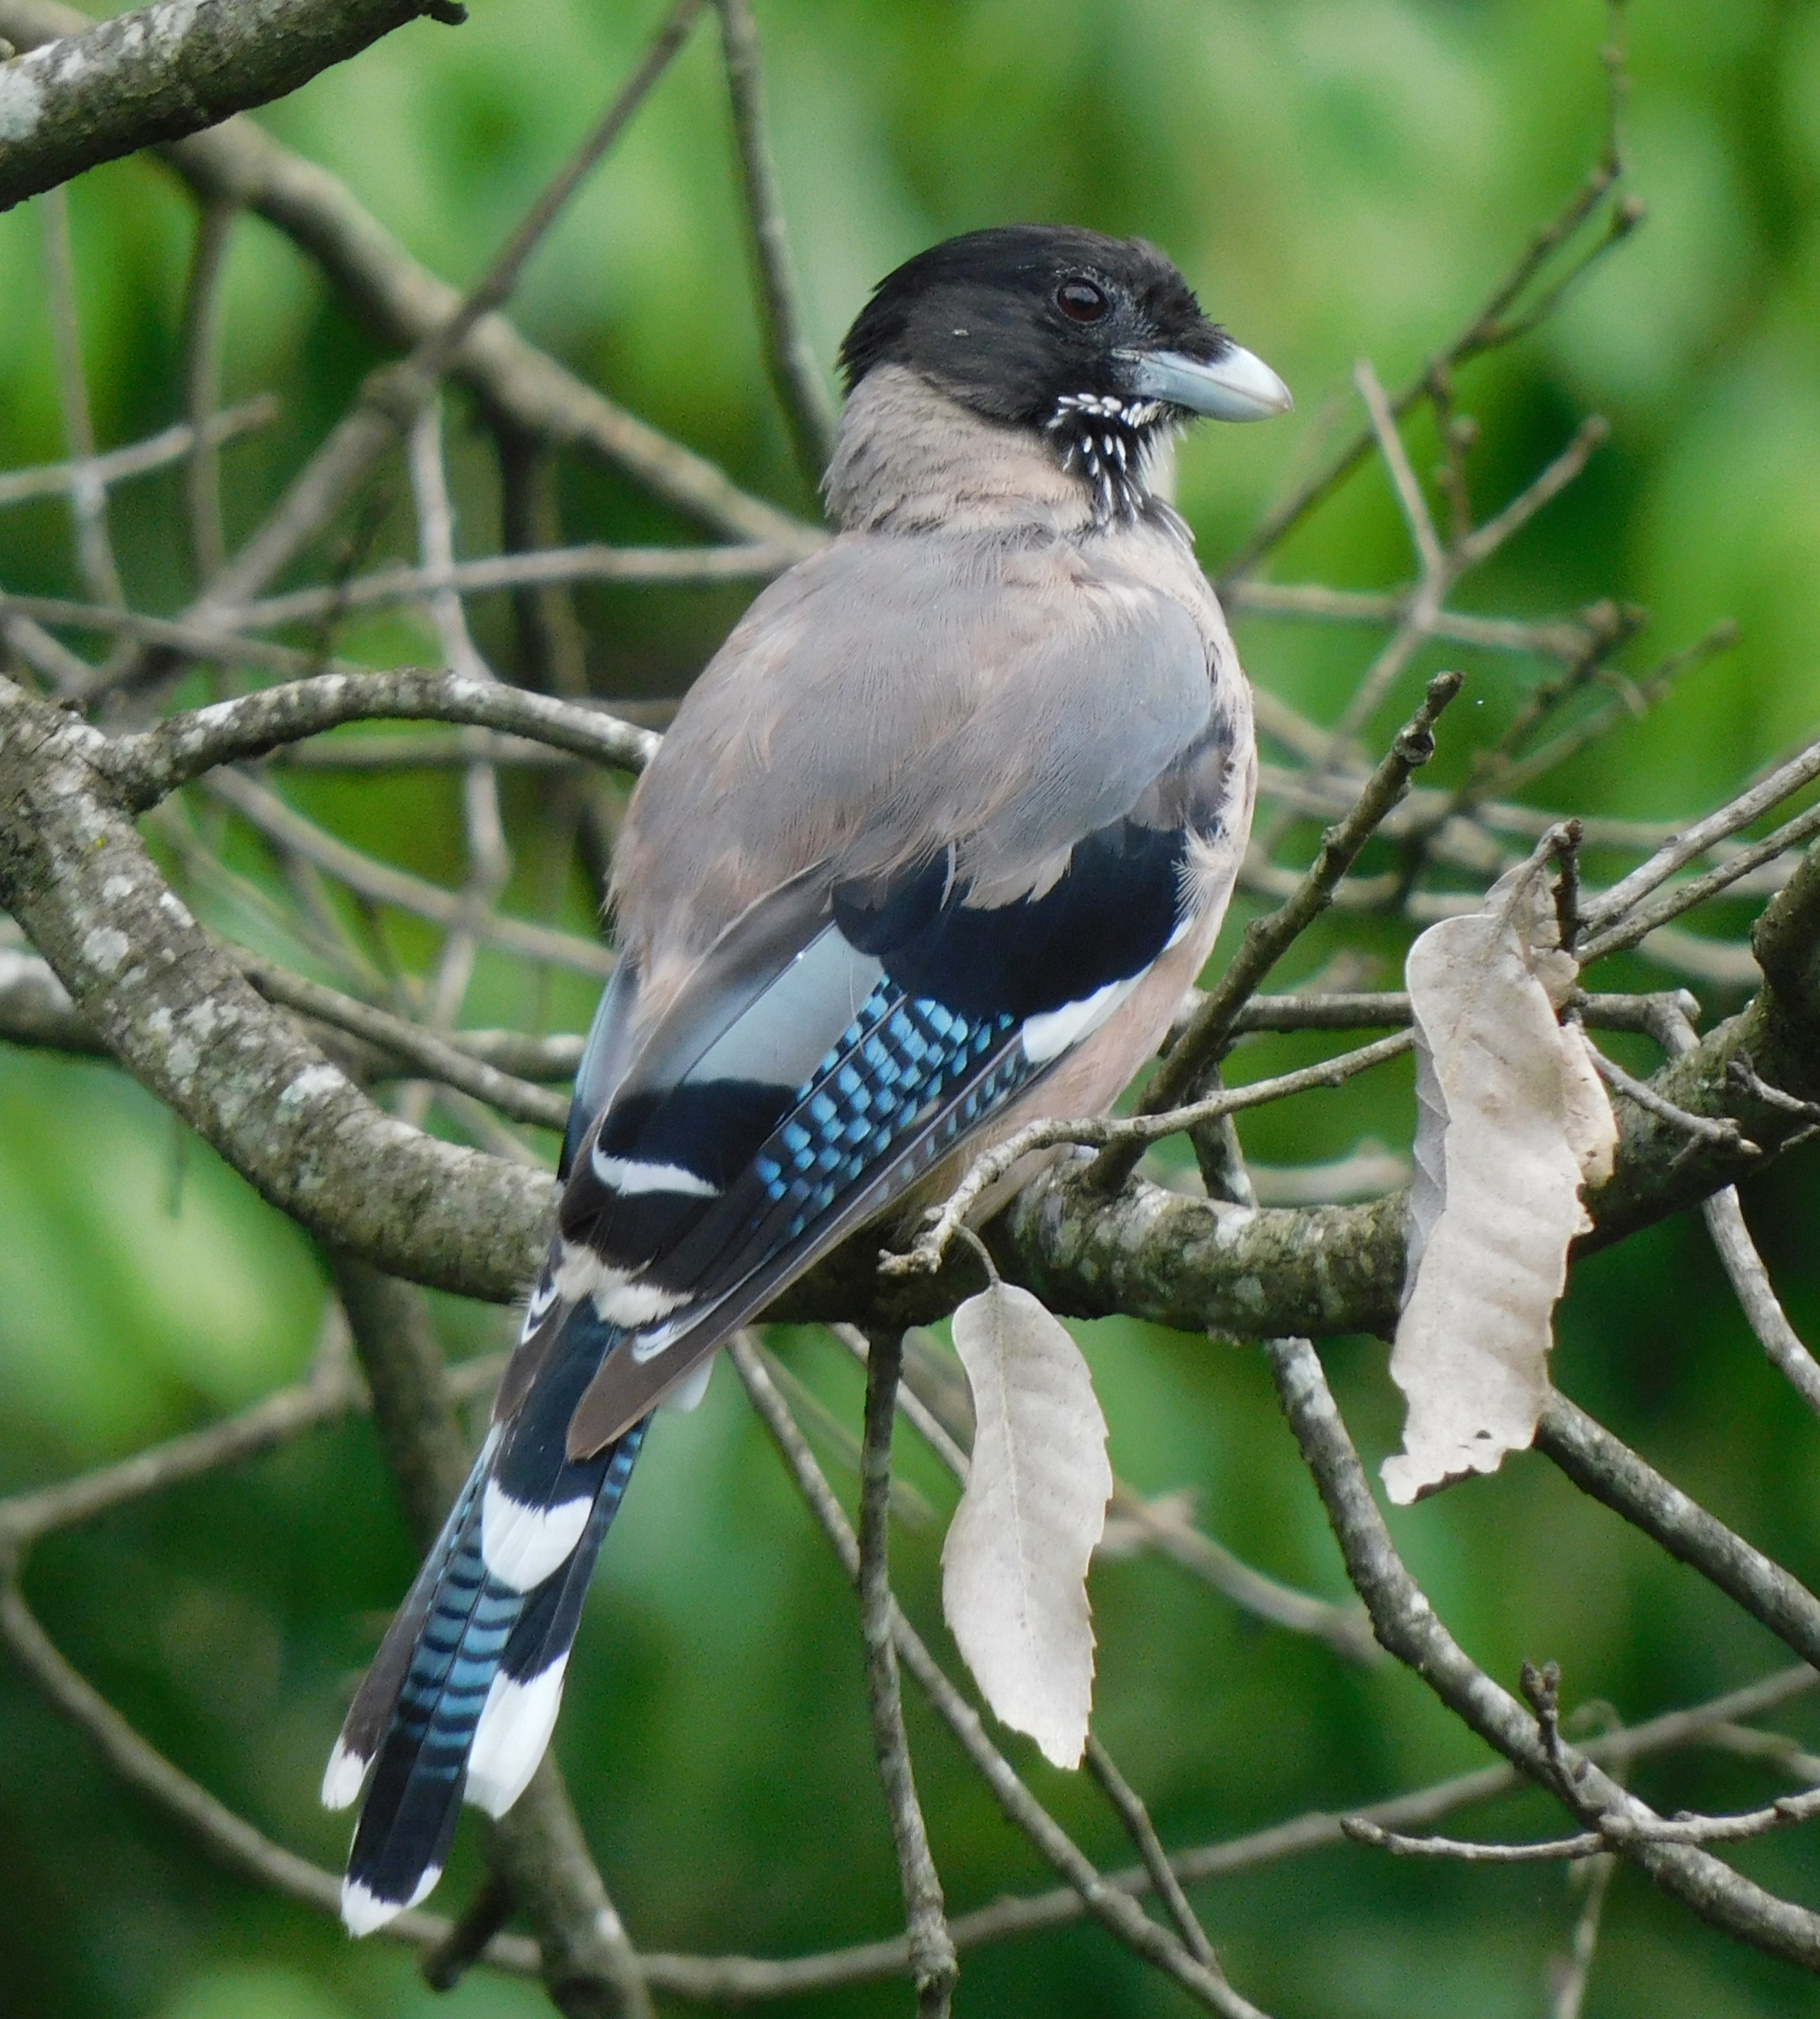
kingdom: Animalia
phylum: Chordata
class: Aves
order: Passeriformes
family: Corvidae
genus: Garrulus
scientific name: Garrulus lanceolatus
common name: Black-headed jay
